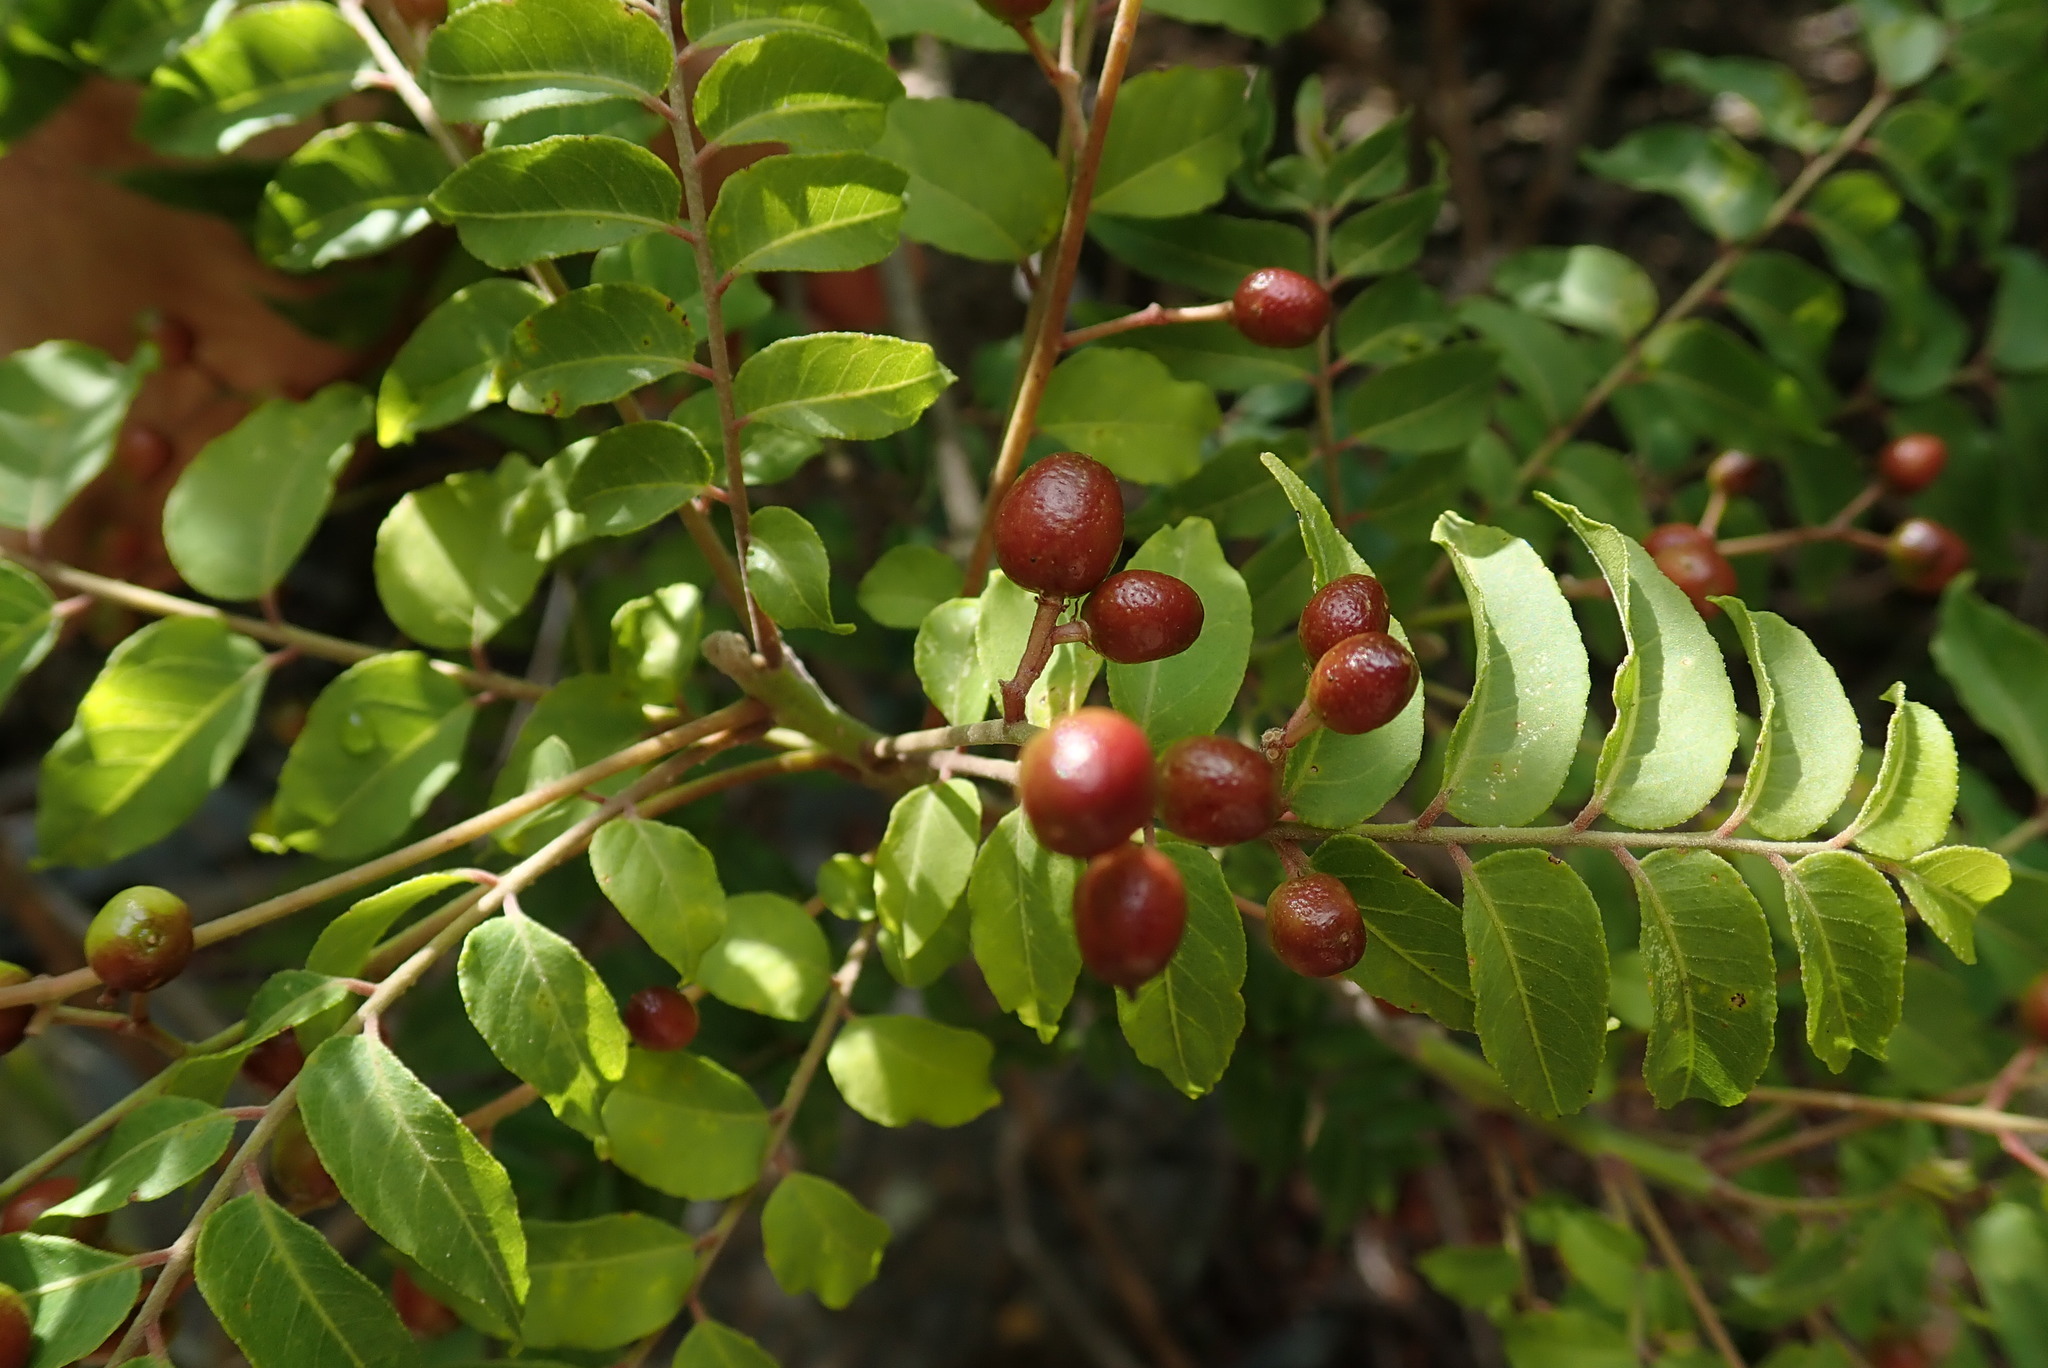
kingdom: Plantae
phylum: Tracheophyta
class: Magnoliopsida
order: Sapindales
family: Rutaceae
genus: Clausena
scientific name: Clausena anisata
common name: Horsewood
